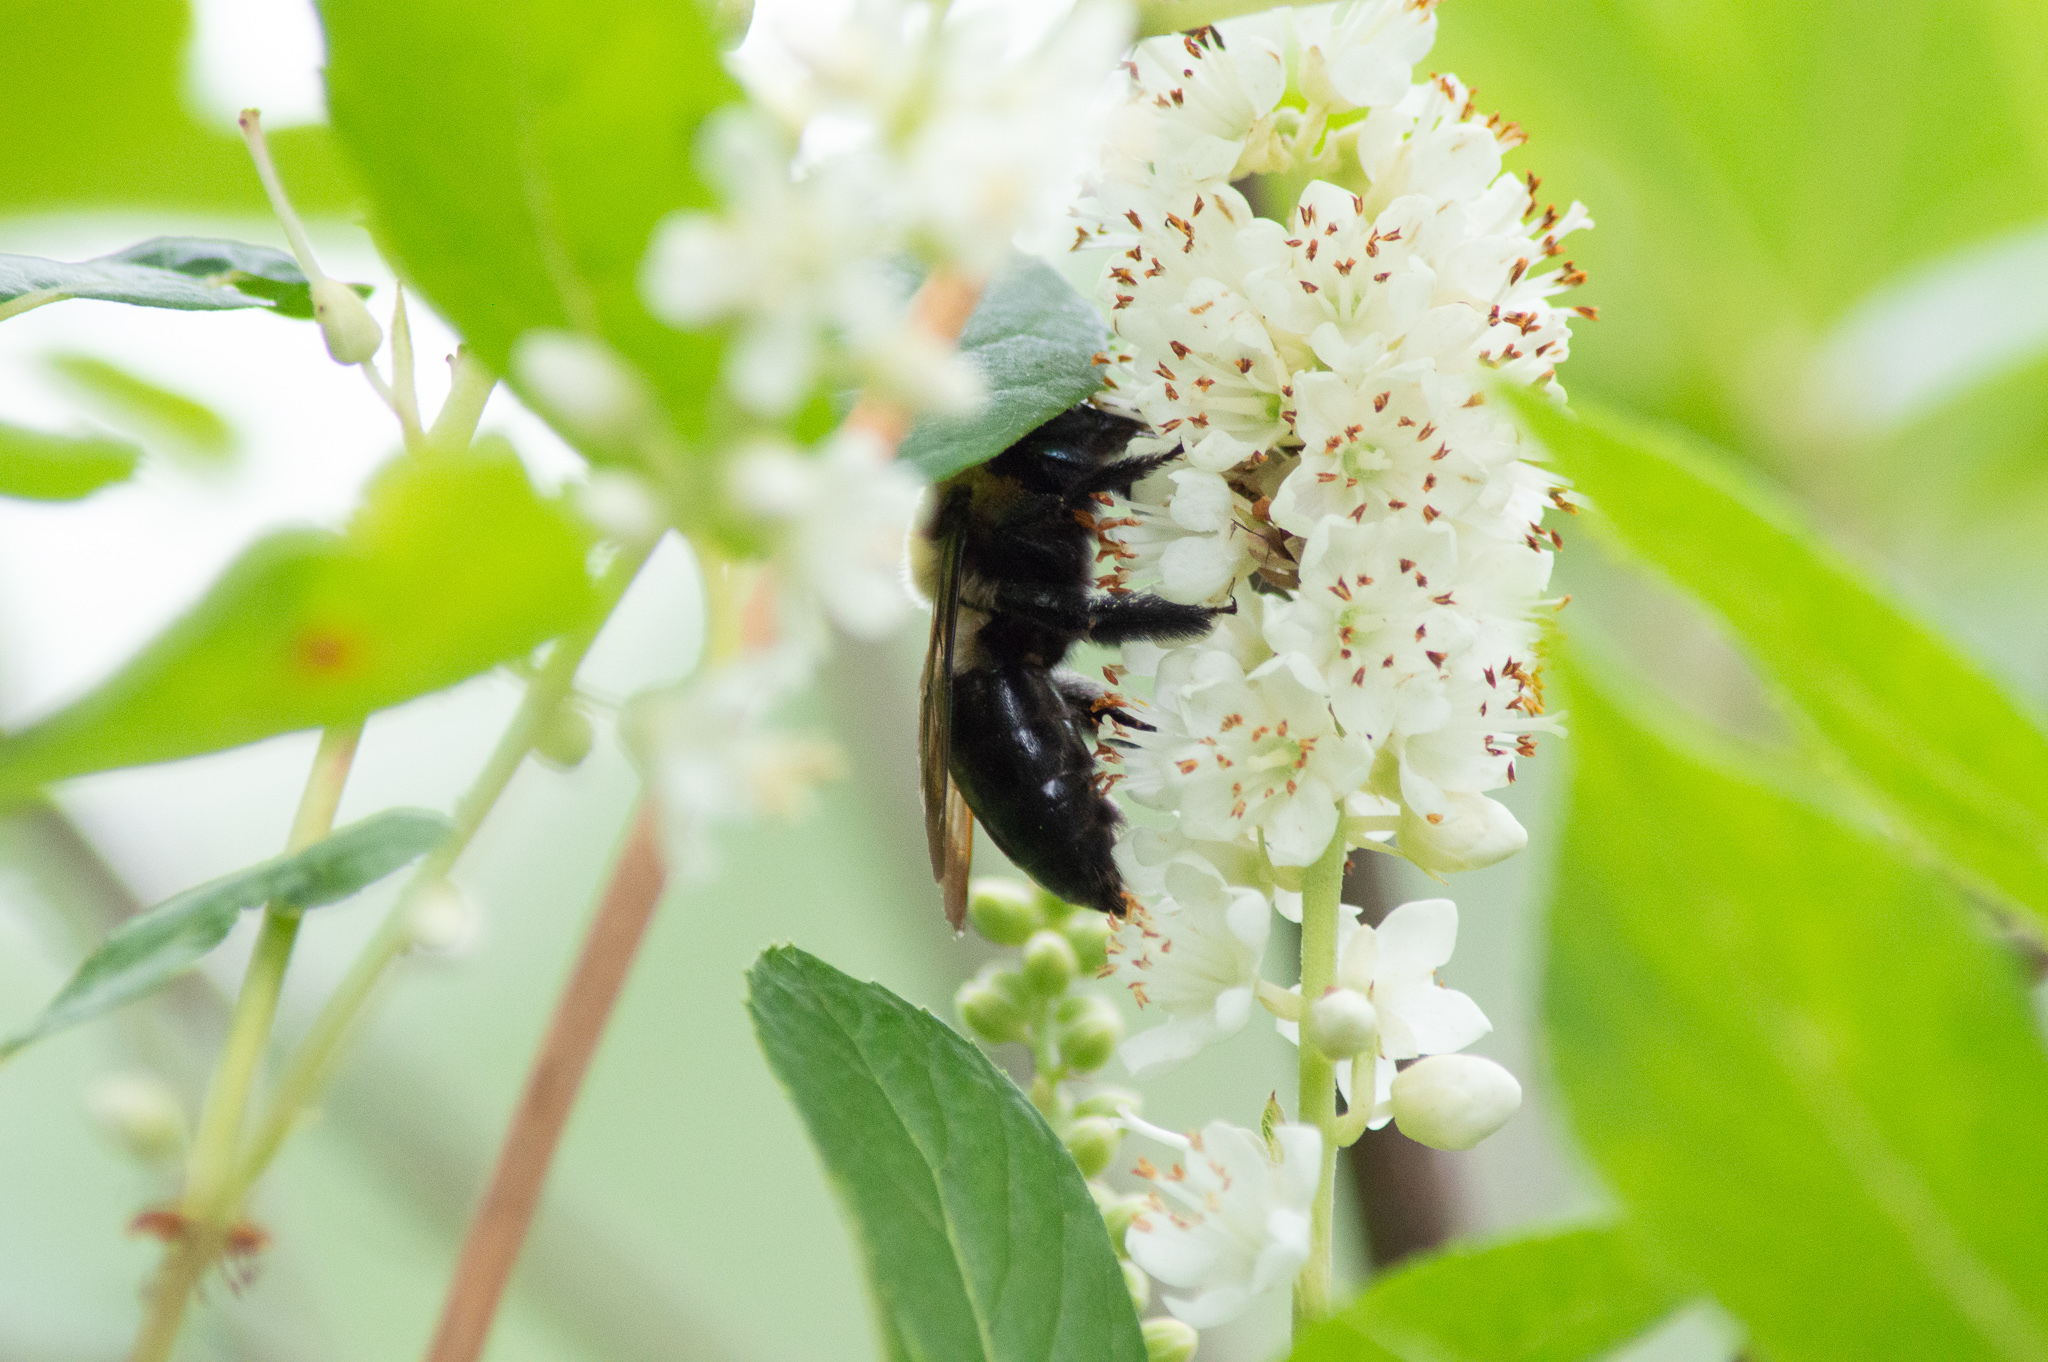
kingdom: Animalia
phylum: Arthropoda
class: Insecta
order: Hymenoptera
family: Apidae
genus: Xylocopa
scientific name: Xylocopa virginica
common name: Carpenter bee
